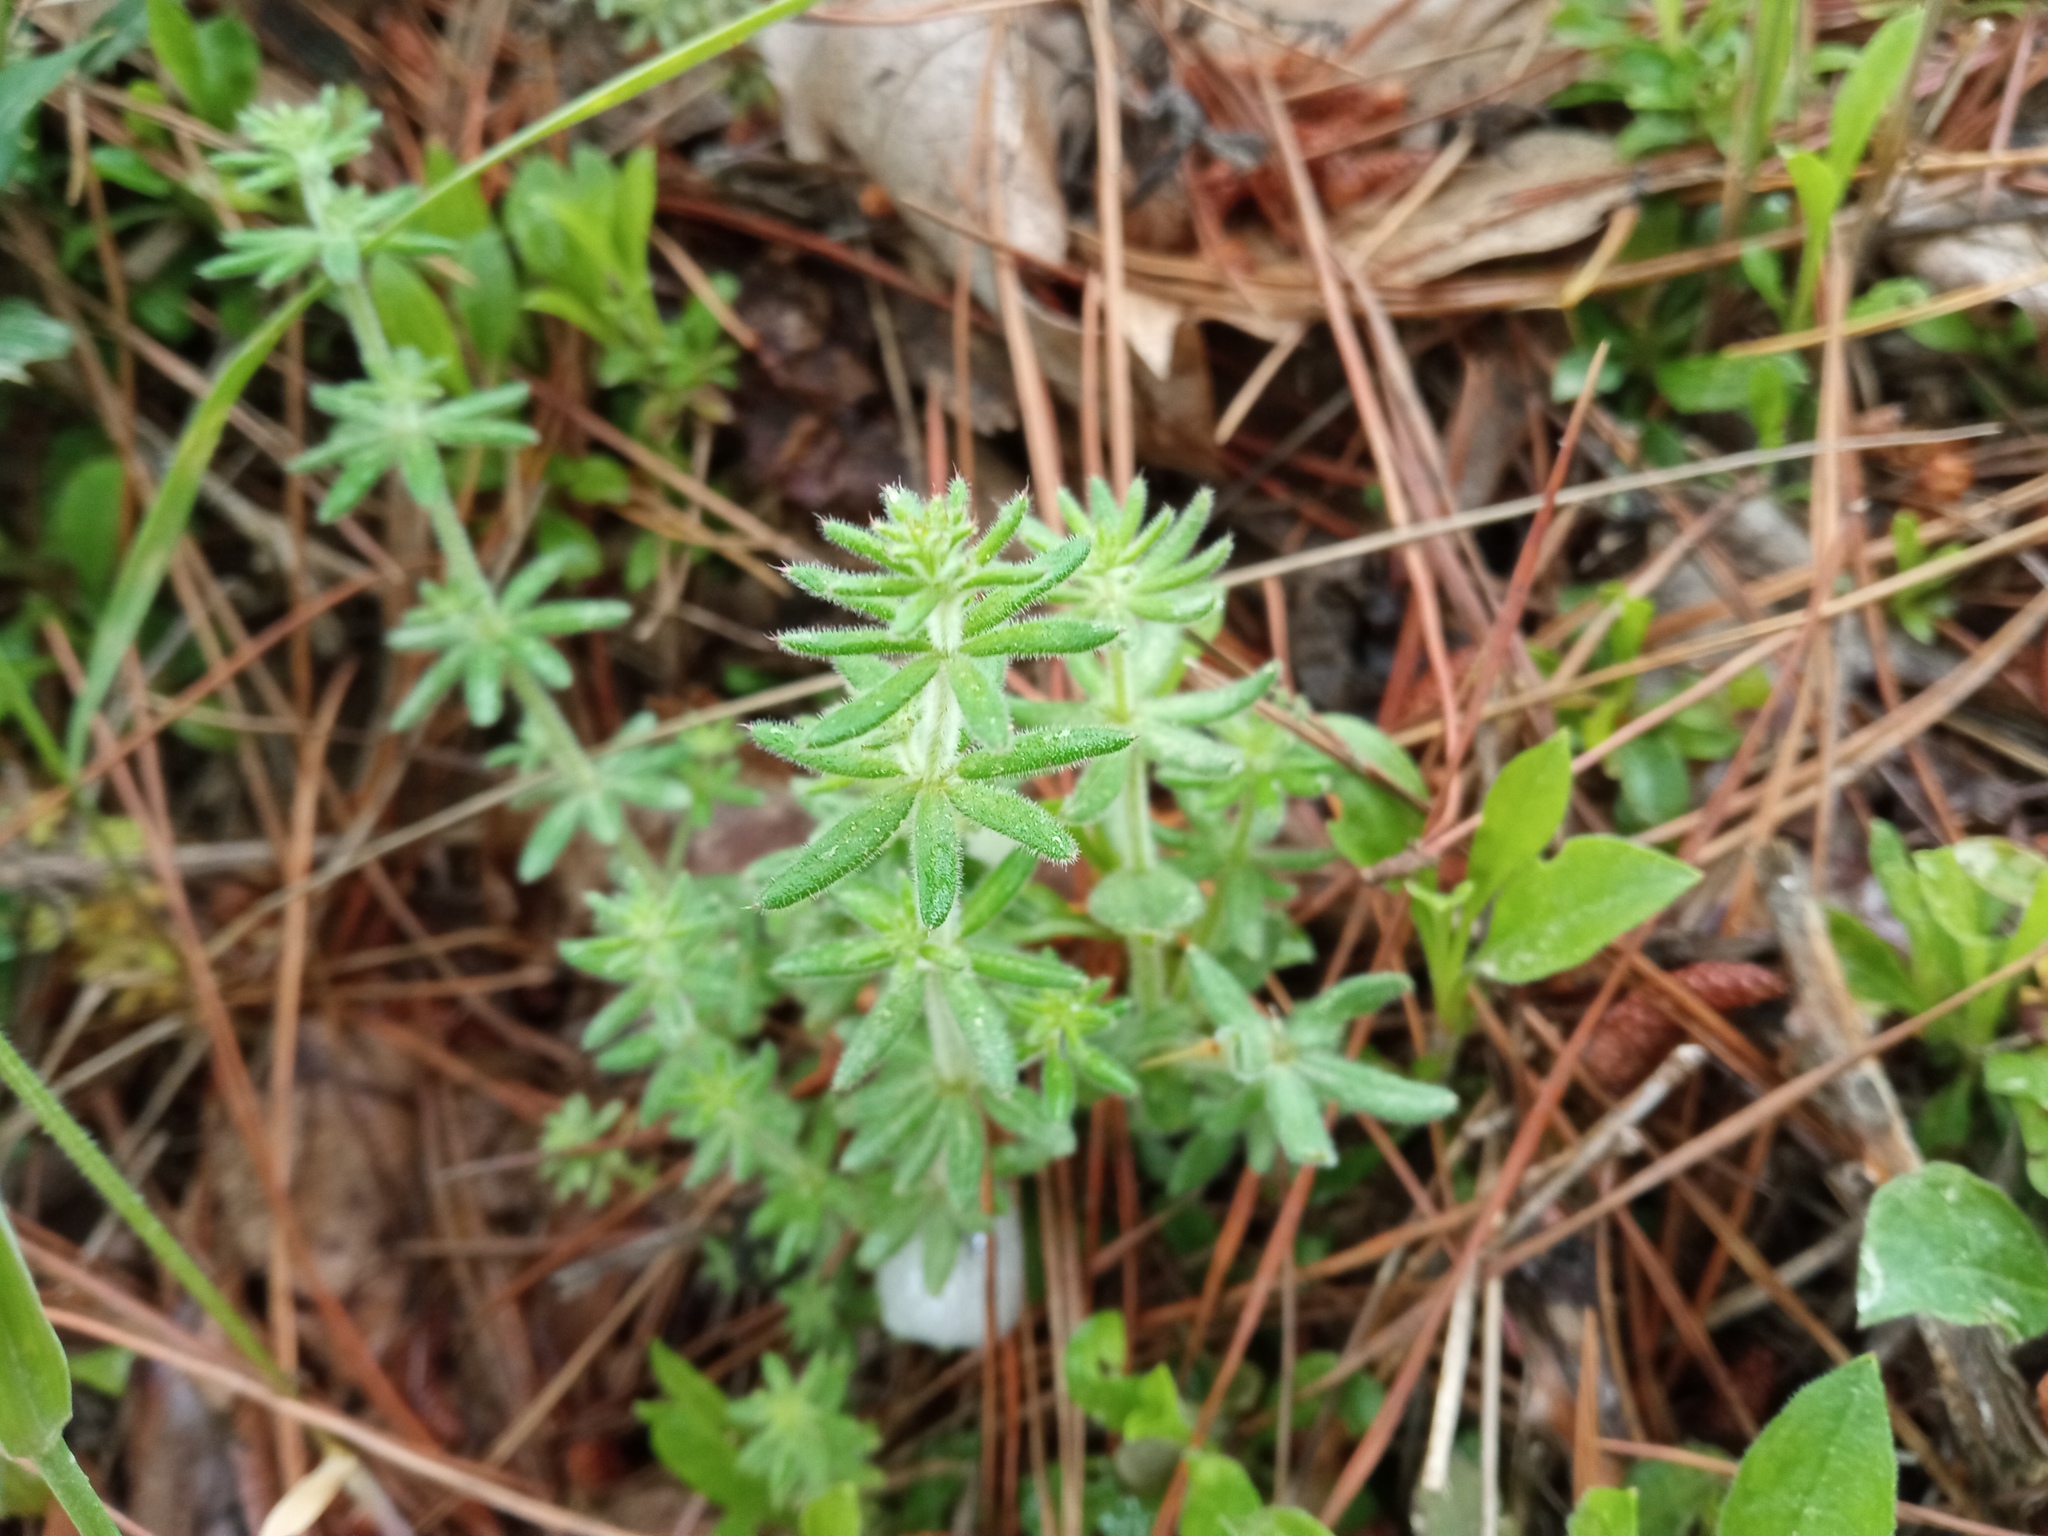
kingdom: Plantae
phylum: Tracheophyta
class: Magnoliopsida
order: Gentianales
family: Rubiaceae
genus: Galium
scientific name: Galium maritimum
